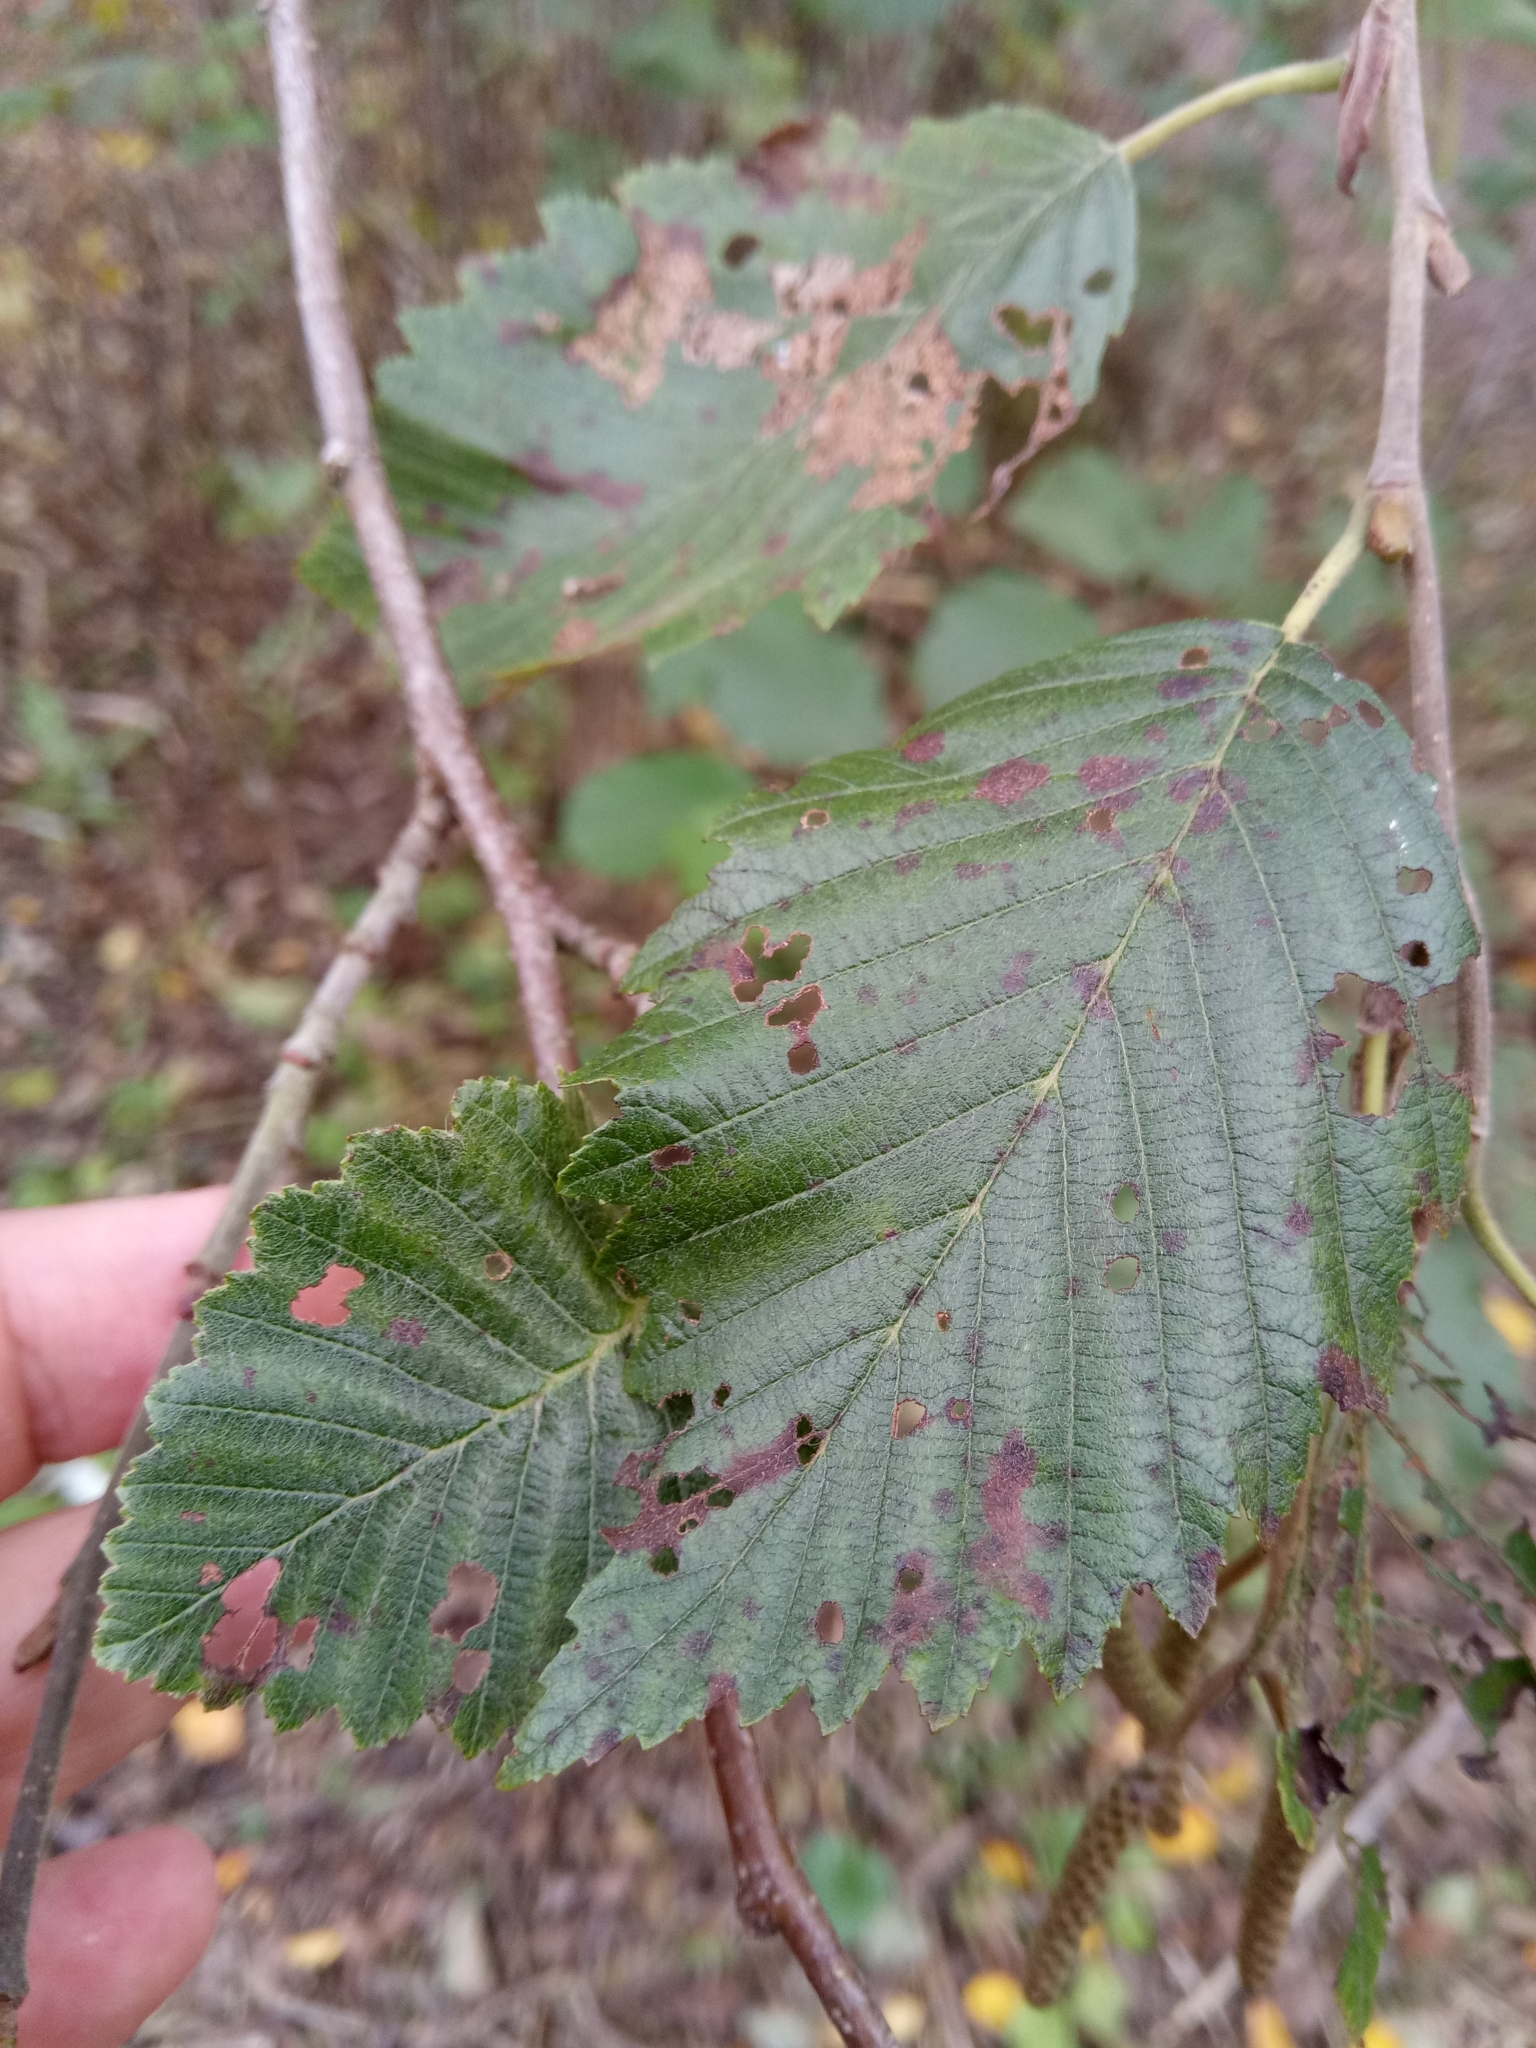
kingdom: Plantae
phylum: Tracheophyta
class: Magnoliopsida
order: Fagales
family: Betulaceae
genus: Alnus
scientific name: Alnus incana
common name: Grey alder
